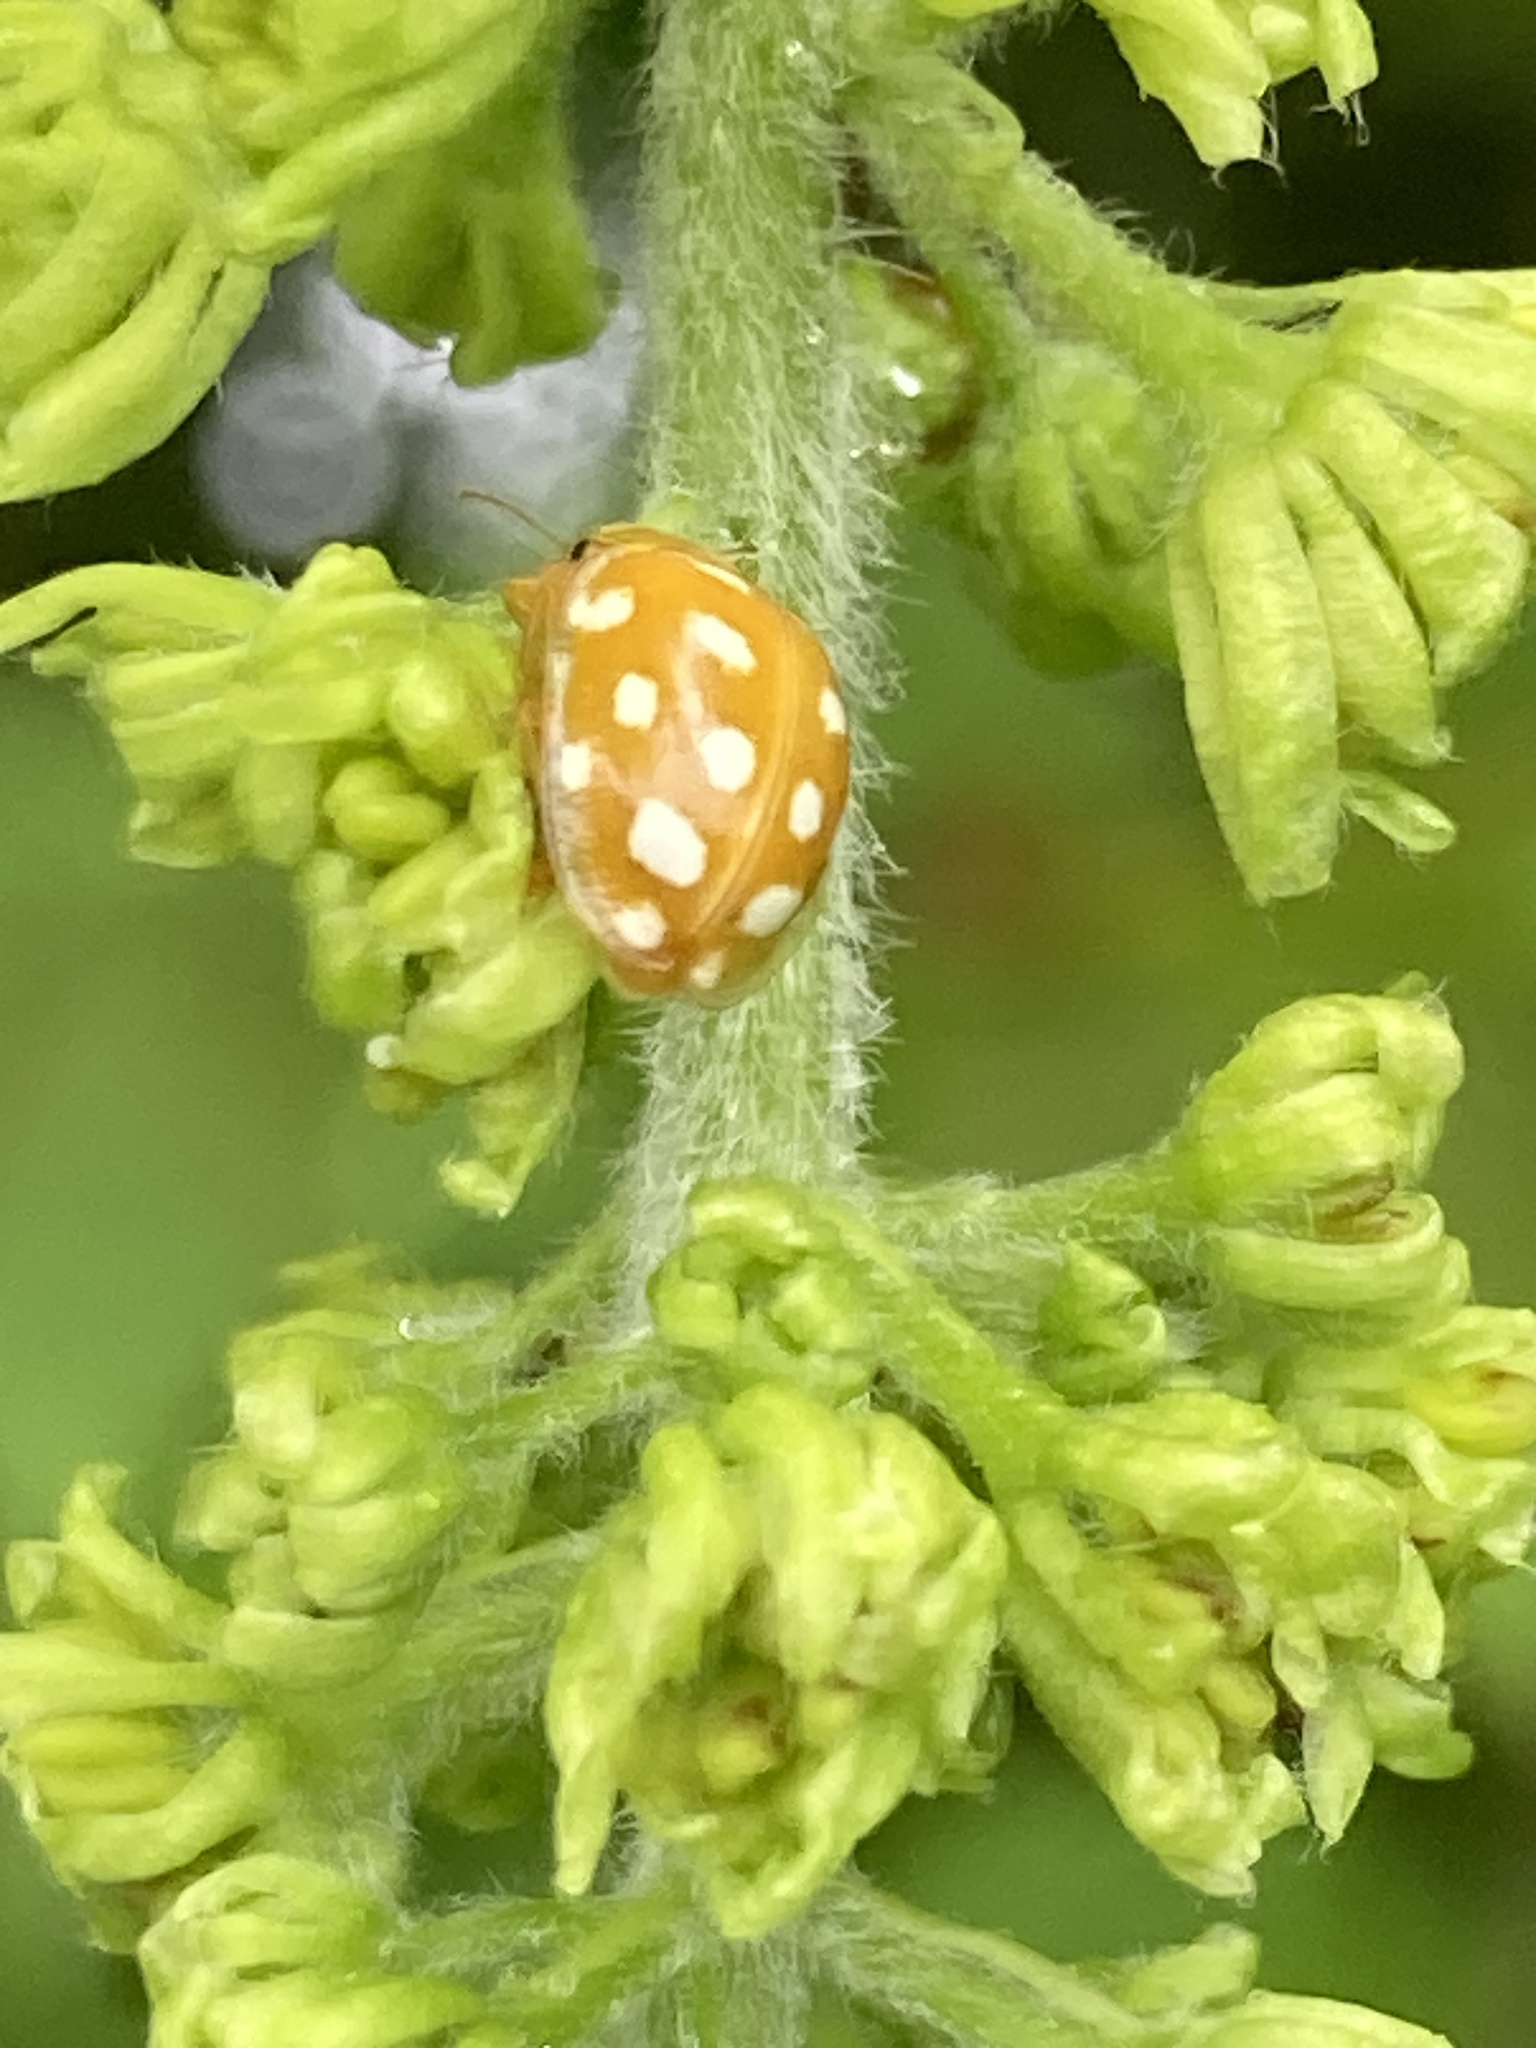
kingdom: Animalia
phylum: Arthropoda
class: Insecta
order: Coleoptera
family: Coccinellidae
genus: Halyzia
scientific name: Halyzia sedecimguttata
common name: Orange ladybird
